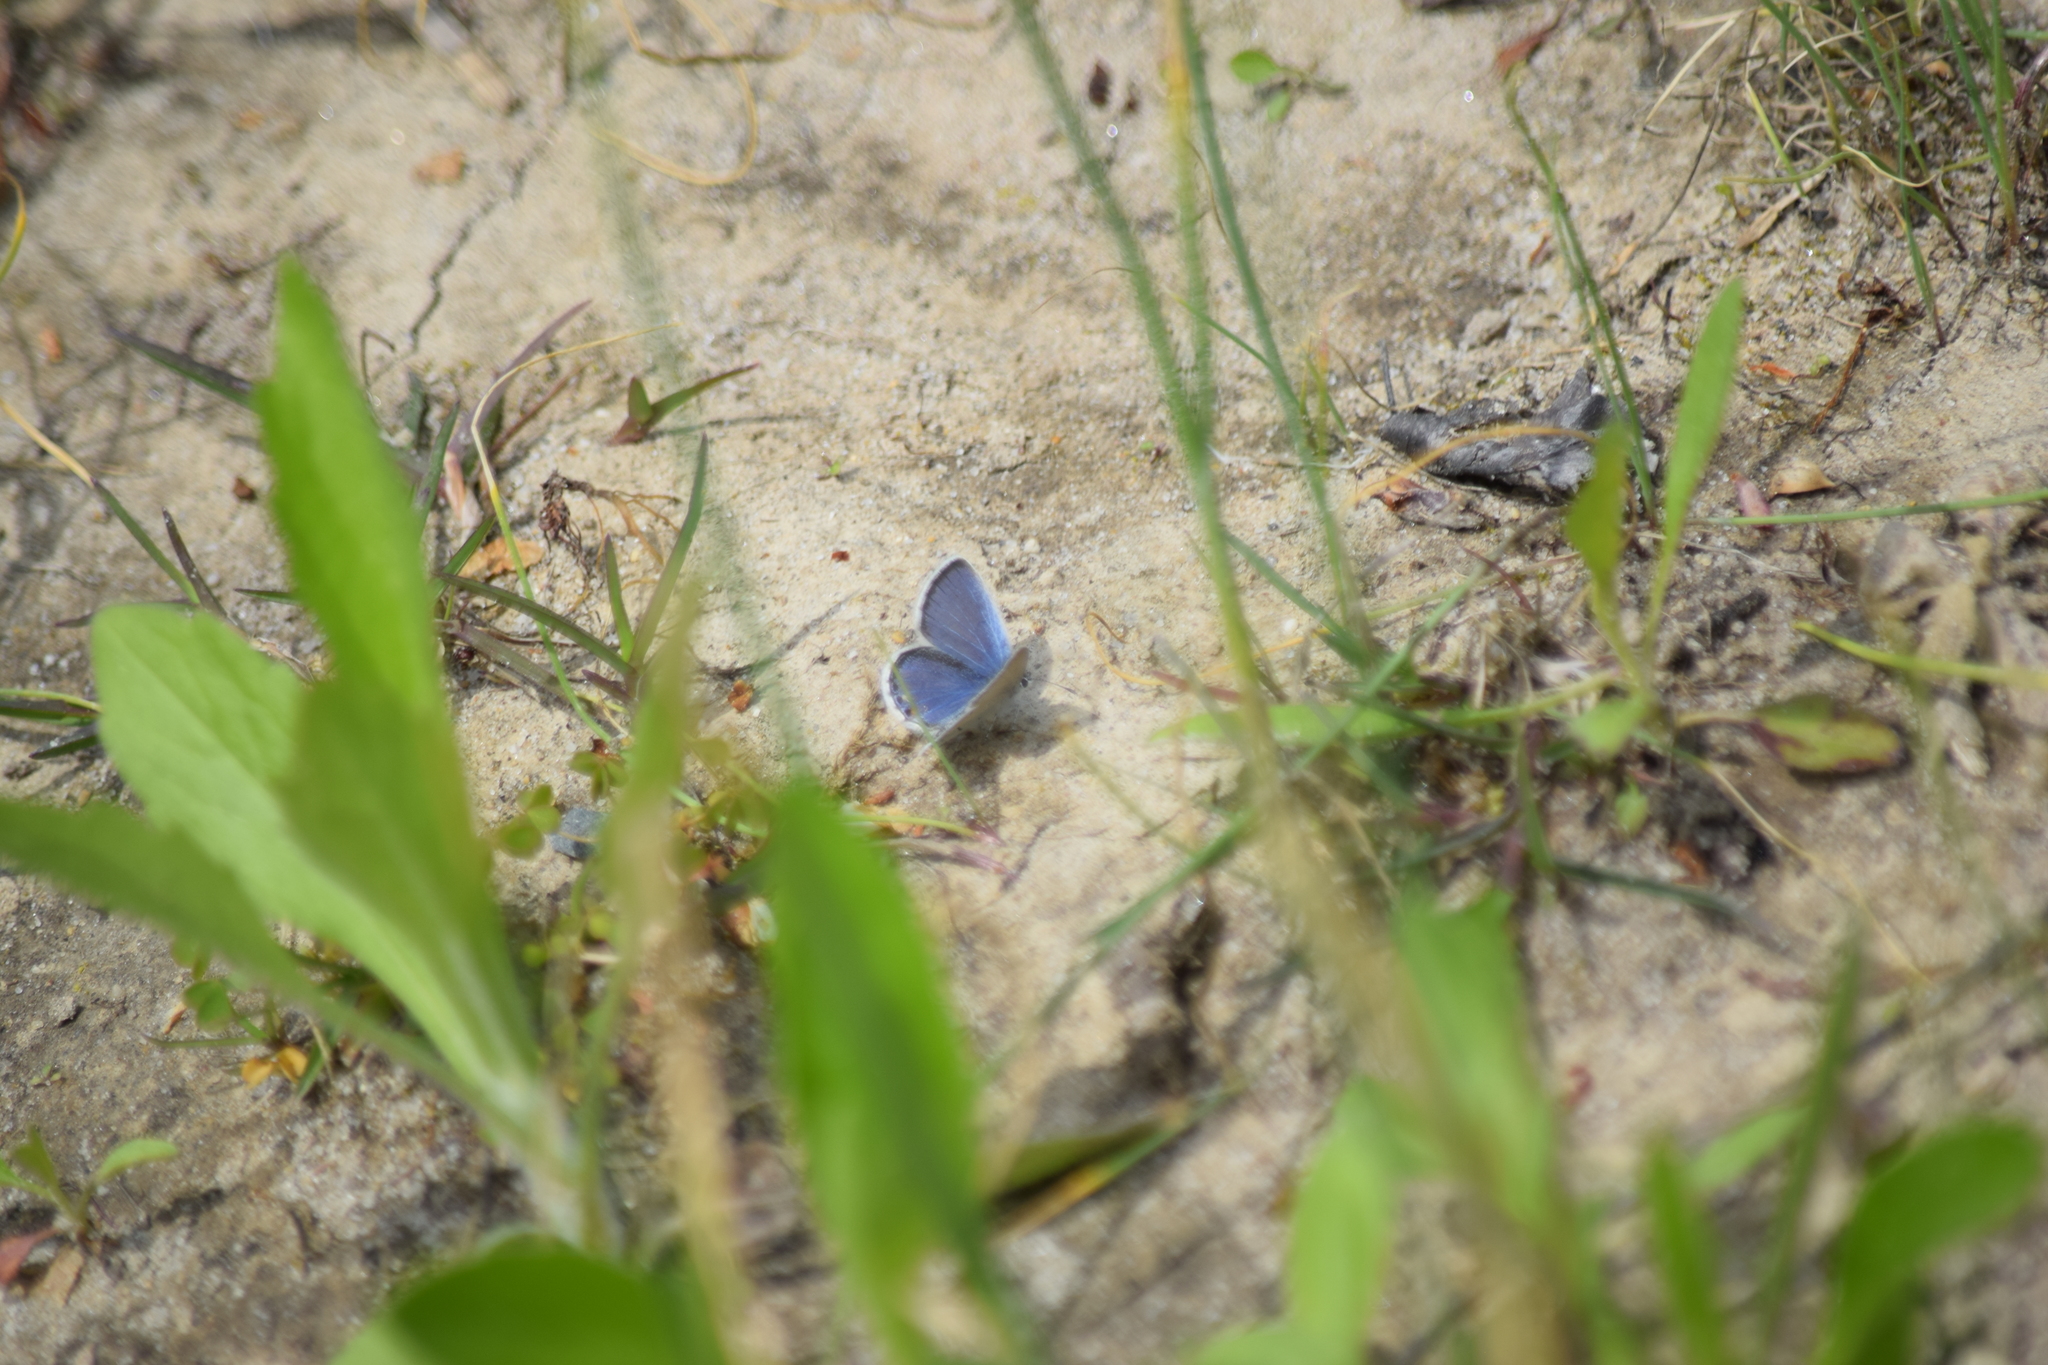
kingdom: Animalia
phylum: Arthropoda
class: Insecta
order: Lepidoptera
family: Lycaenidae
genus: Elkalyce
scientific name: Elkalyce comyntas
